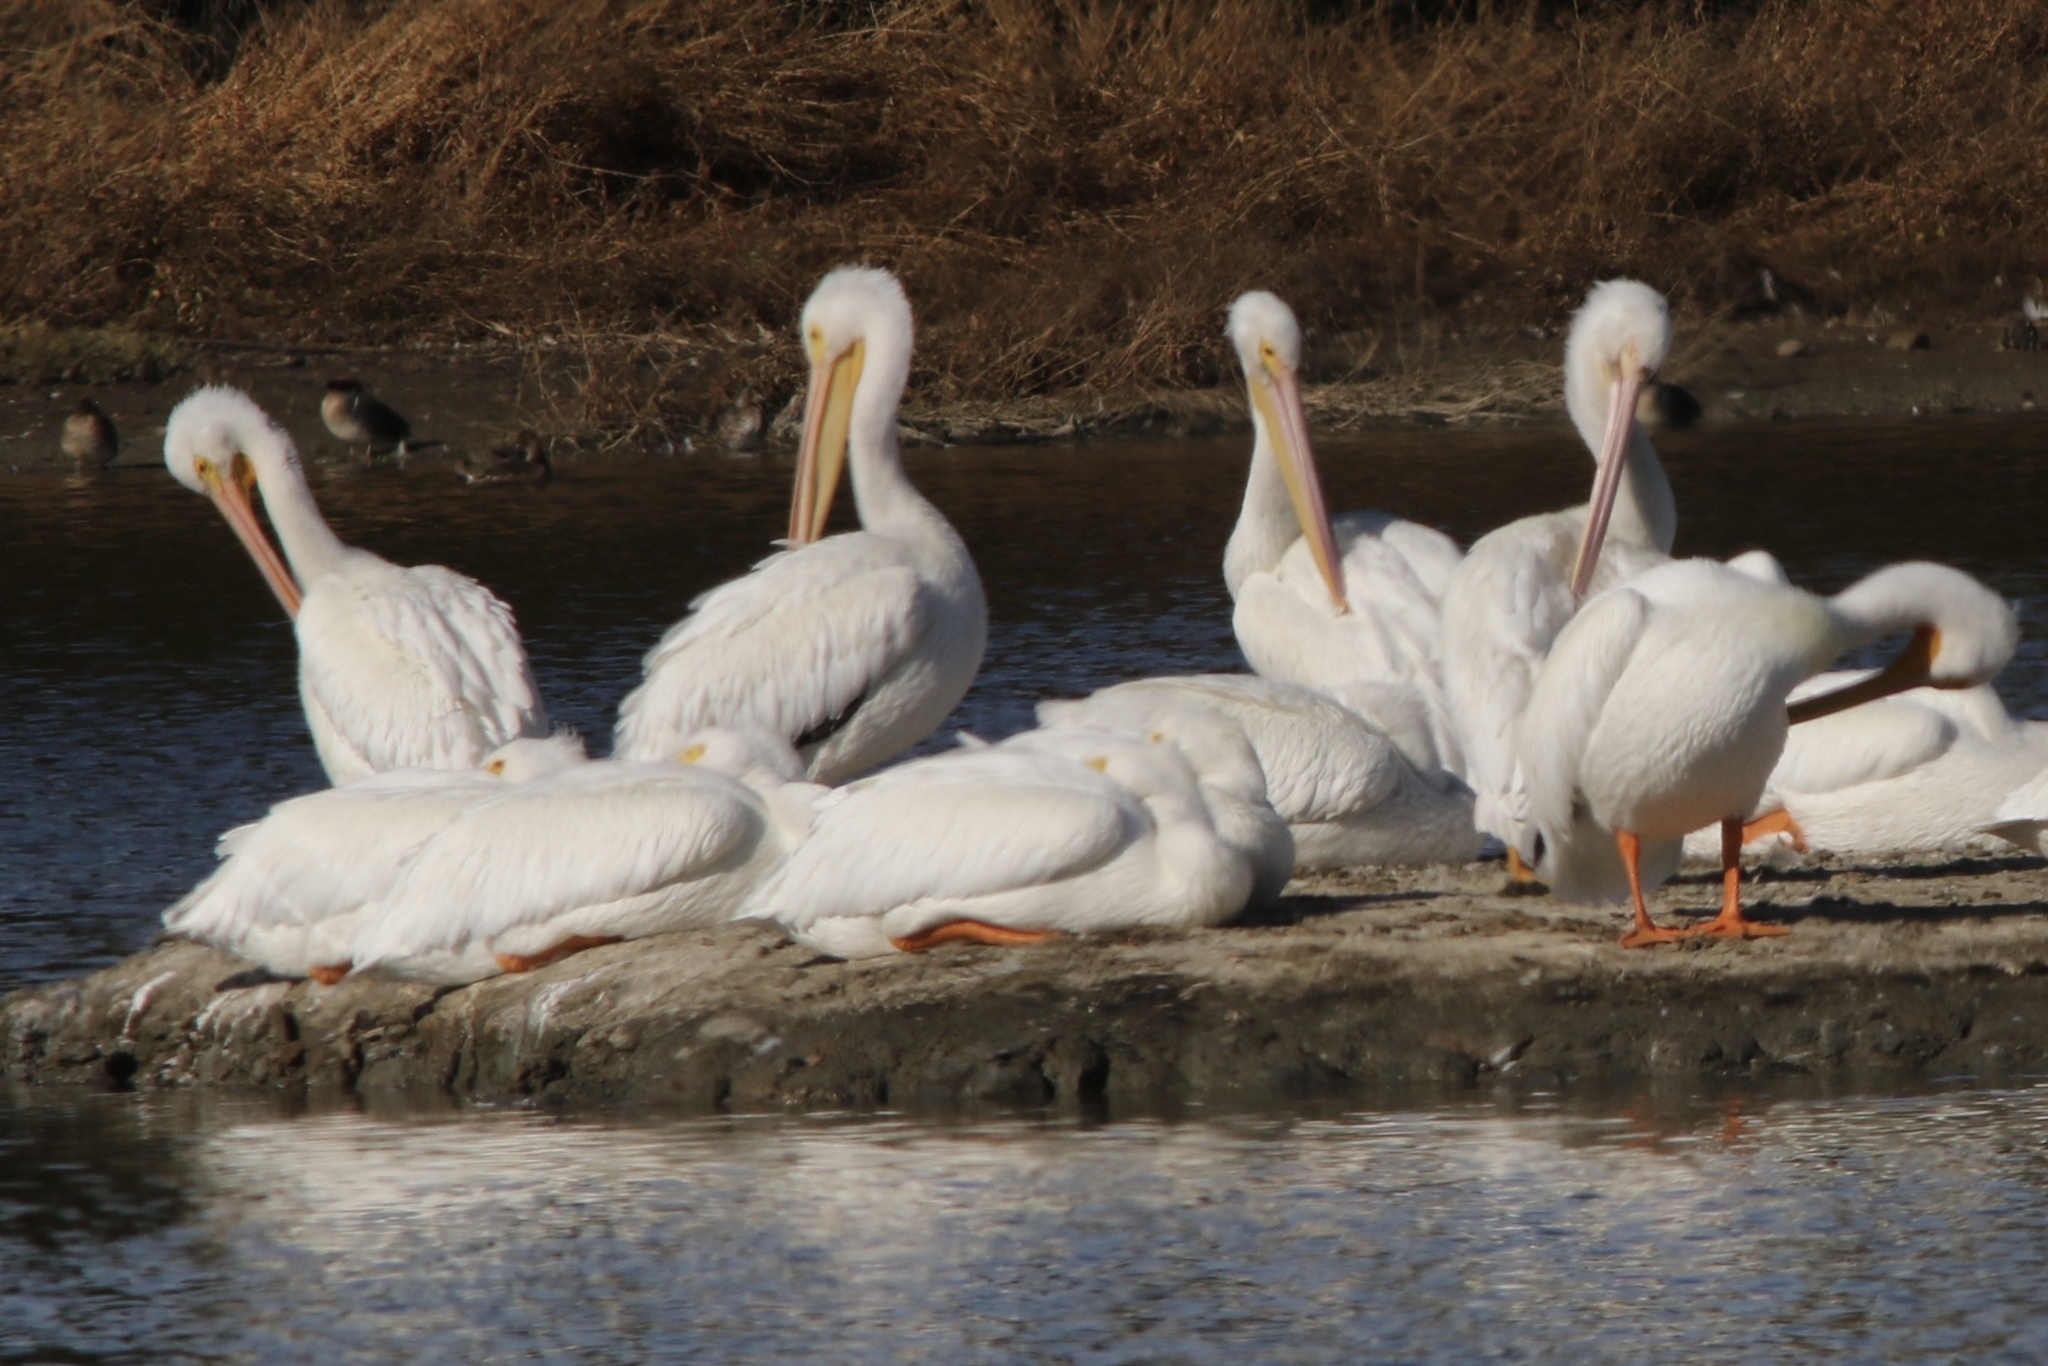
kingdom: Animalia
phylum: Chordata
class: Aves
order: Pelecaniformes
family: Pelecanidae
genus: Pelecanus
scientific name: Pelecanus erythrorhynchos
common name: American white pelican
